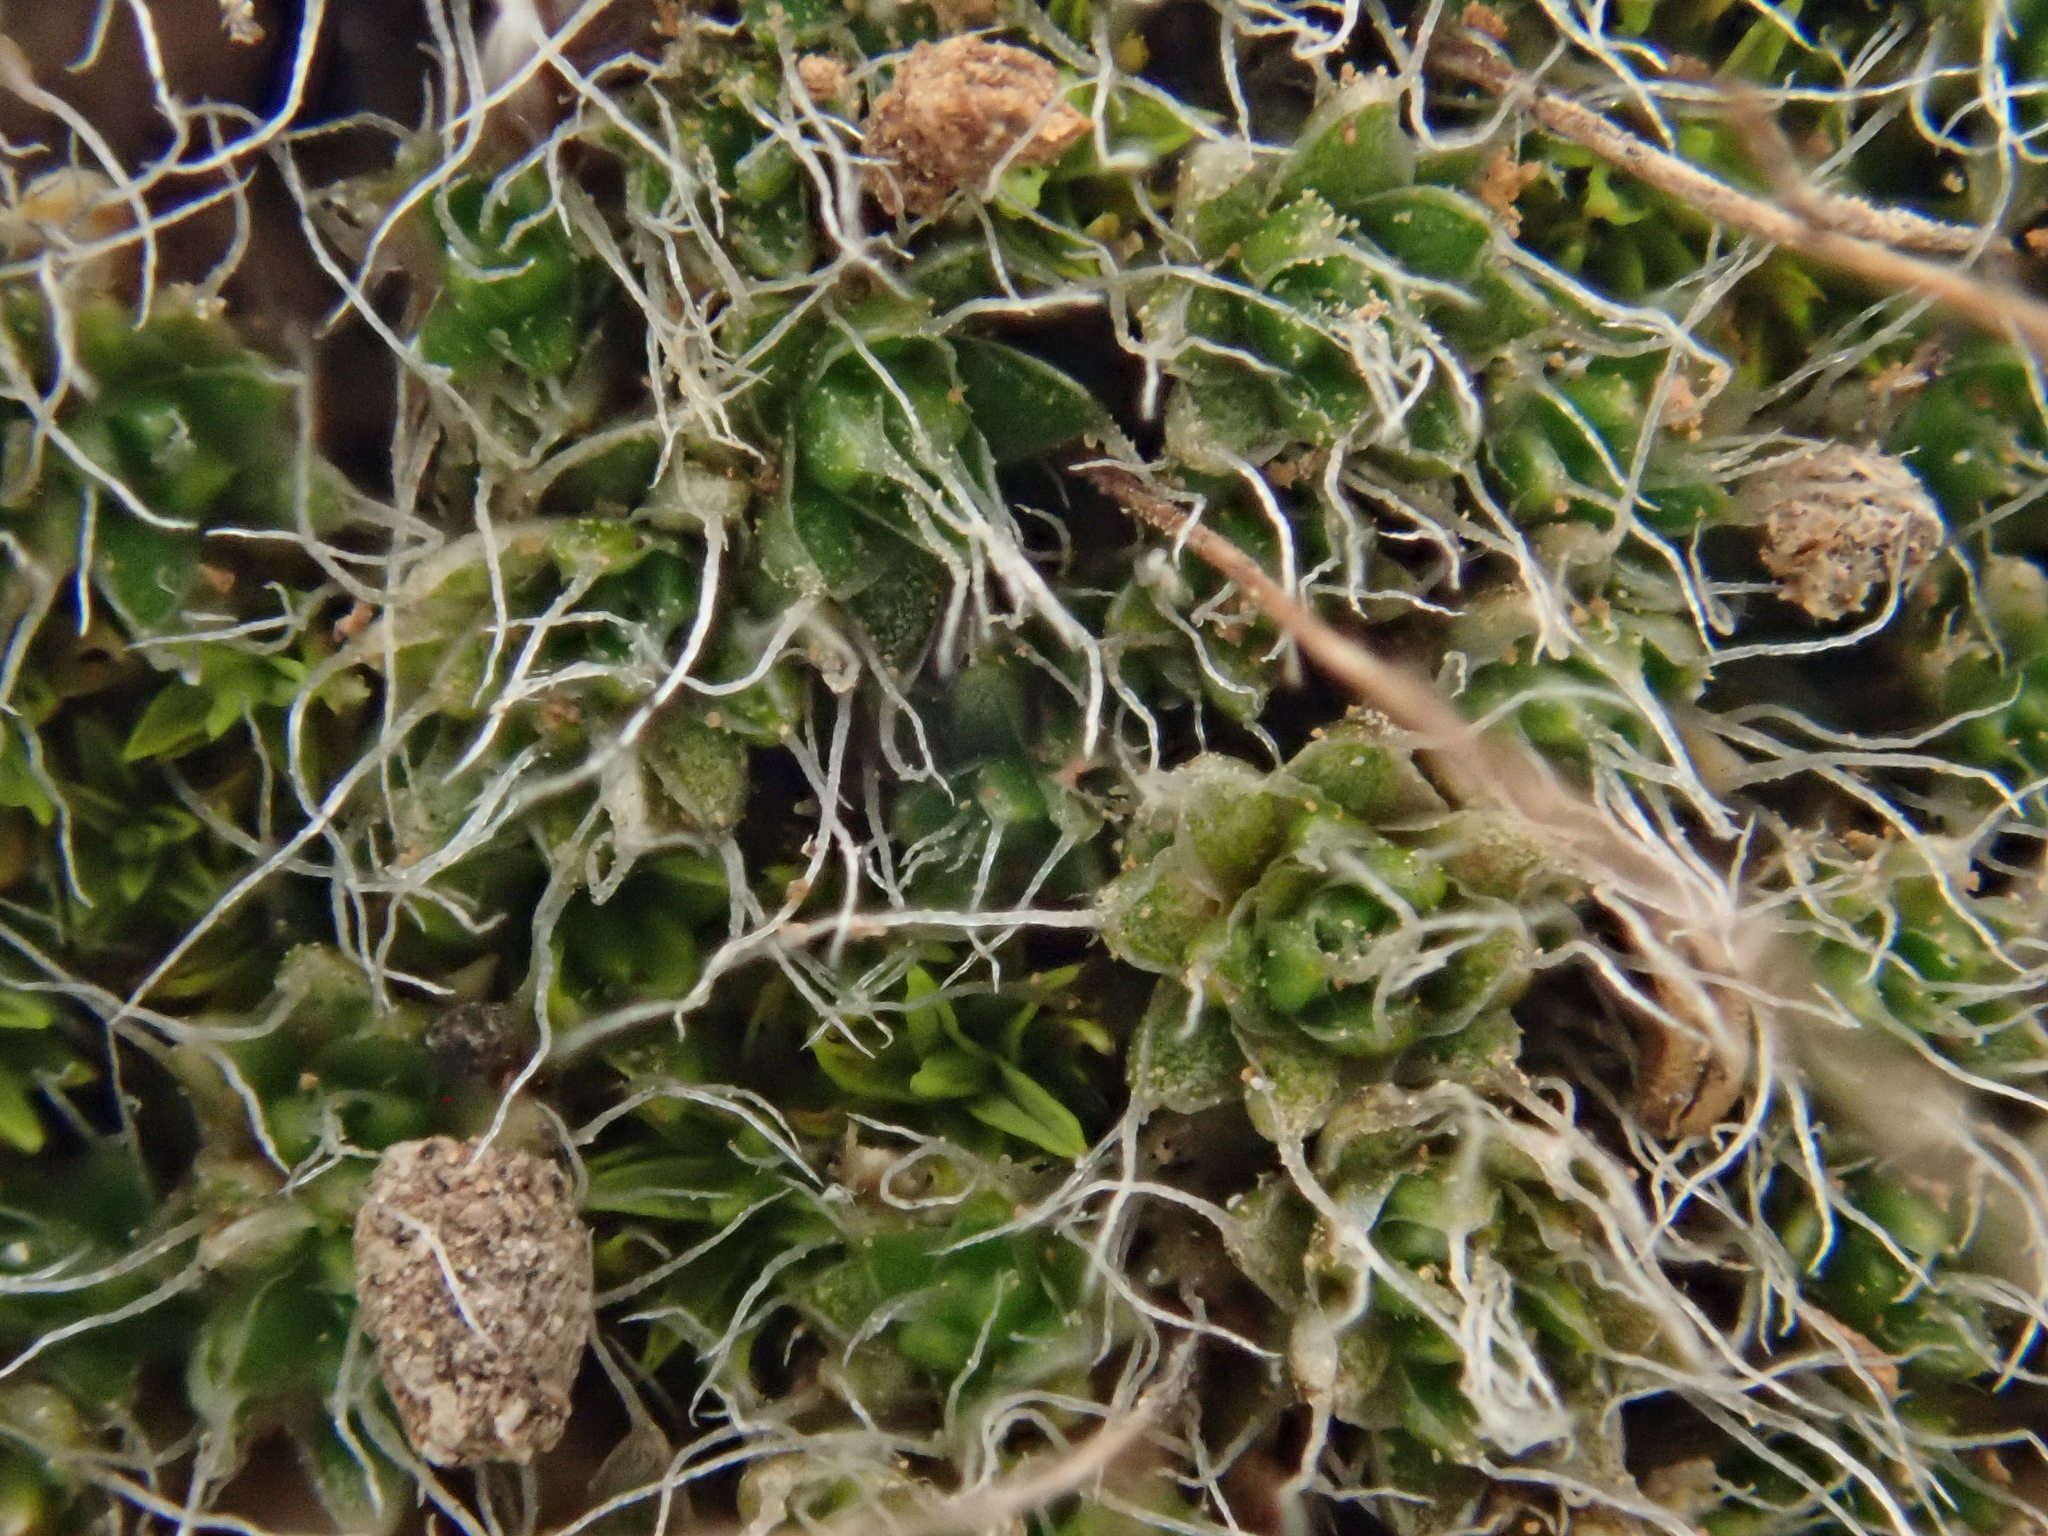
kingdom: Plantae
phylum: Bryophyta
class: Bryopsida
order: Pottiales
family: Pottiaceae
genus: Crossidium
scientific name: Crossidium squamiferum
